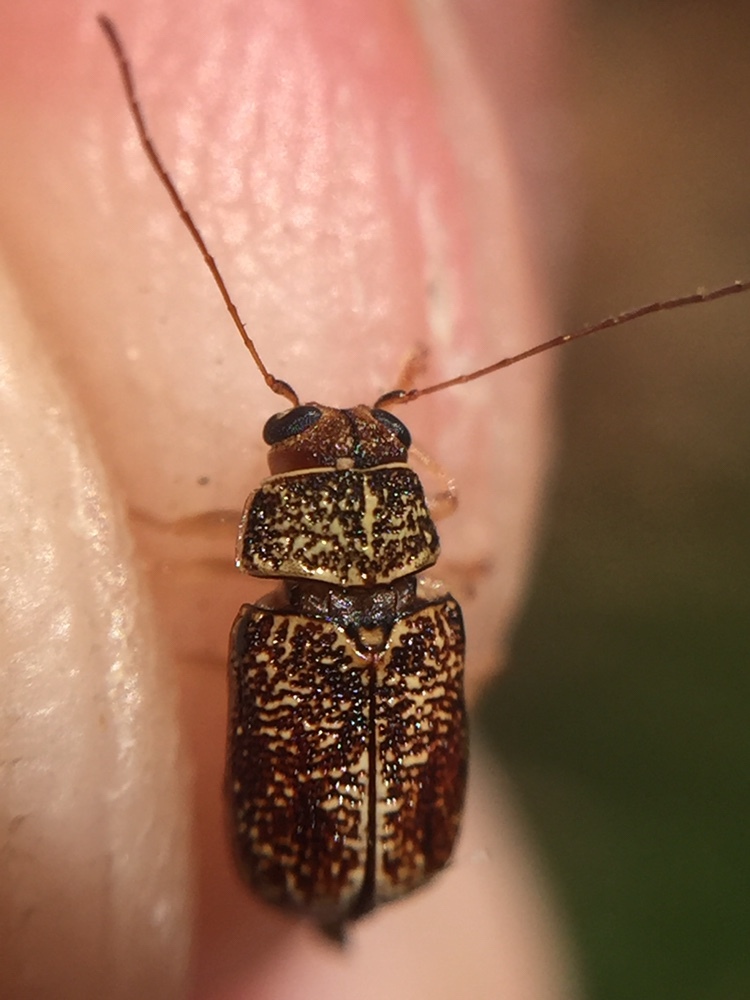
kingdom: Animalia
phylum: Arthropoda
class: Insecta
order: Coleoptera
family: Chrysomelidae
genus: Aporocera
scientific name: Aporocera
